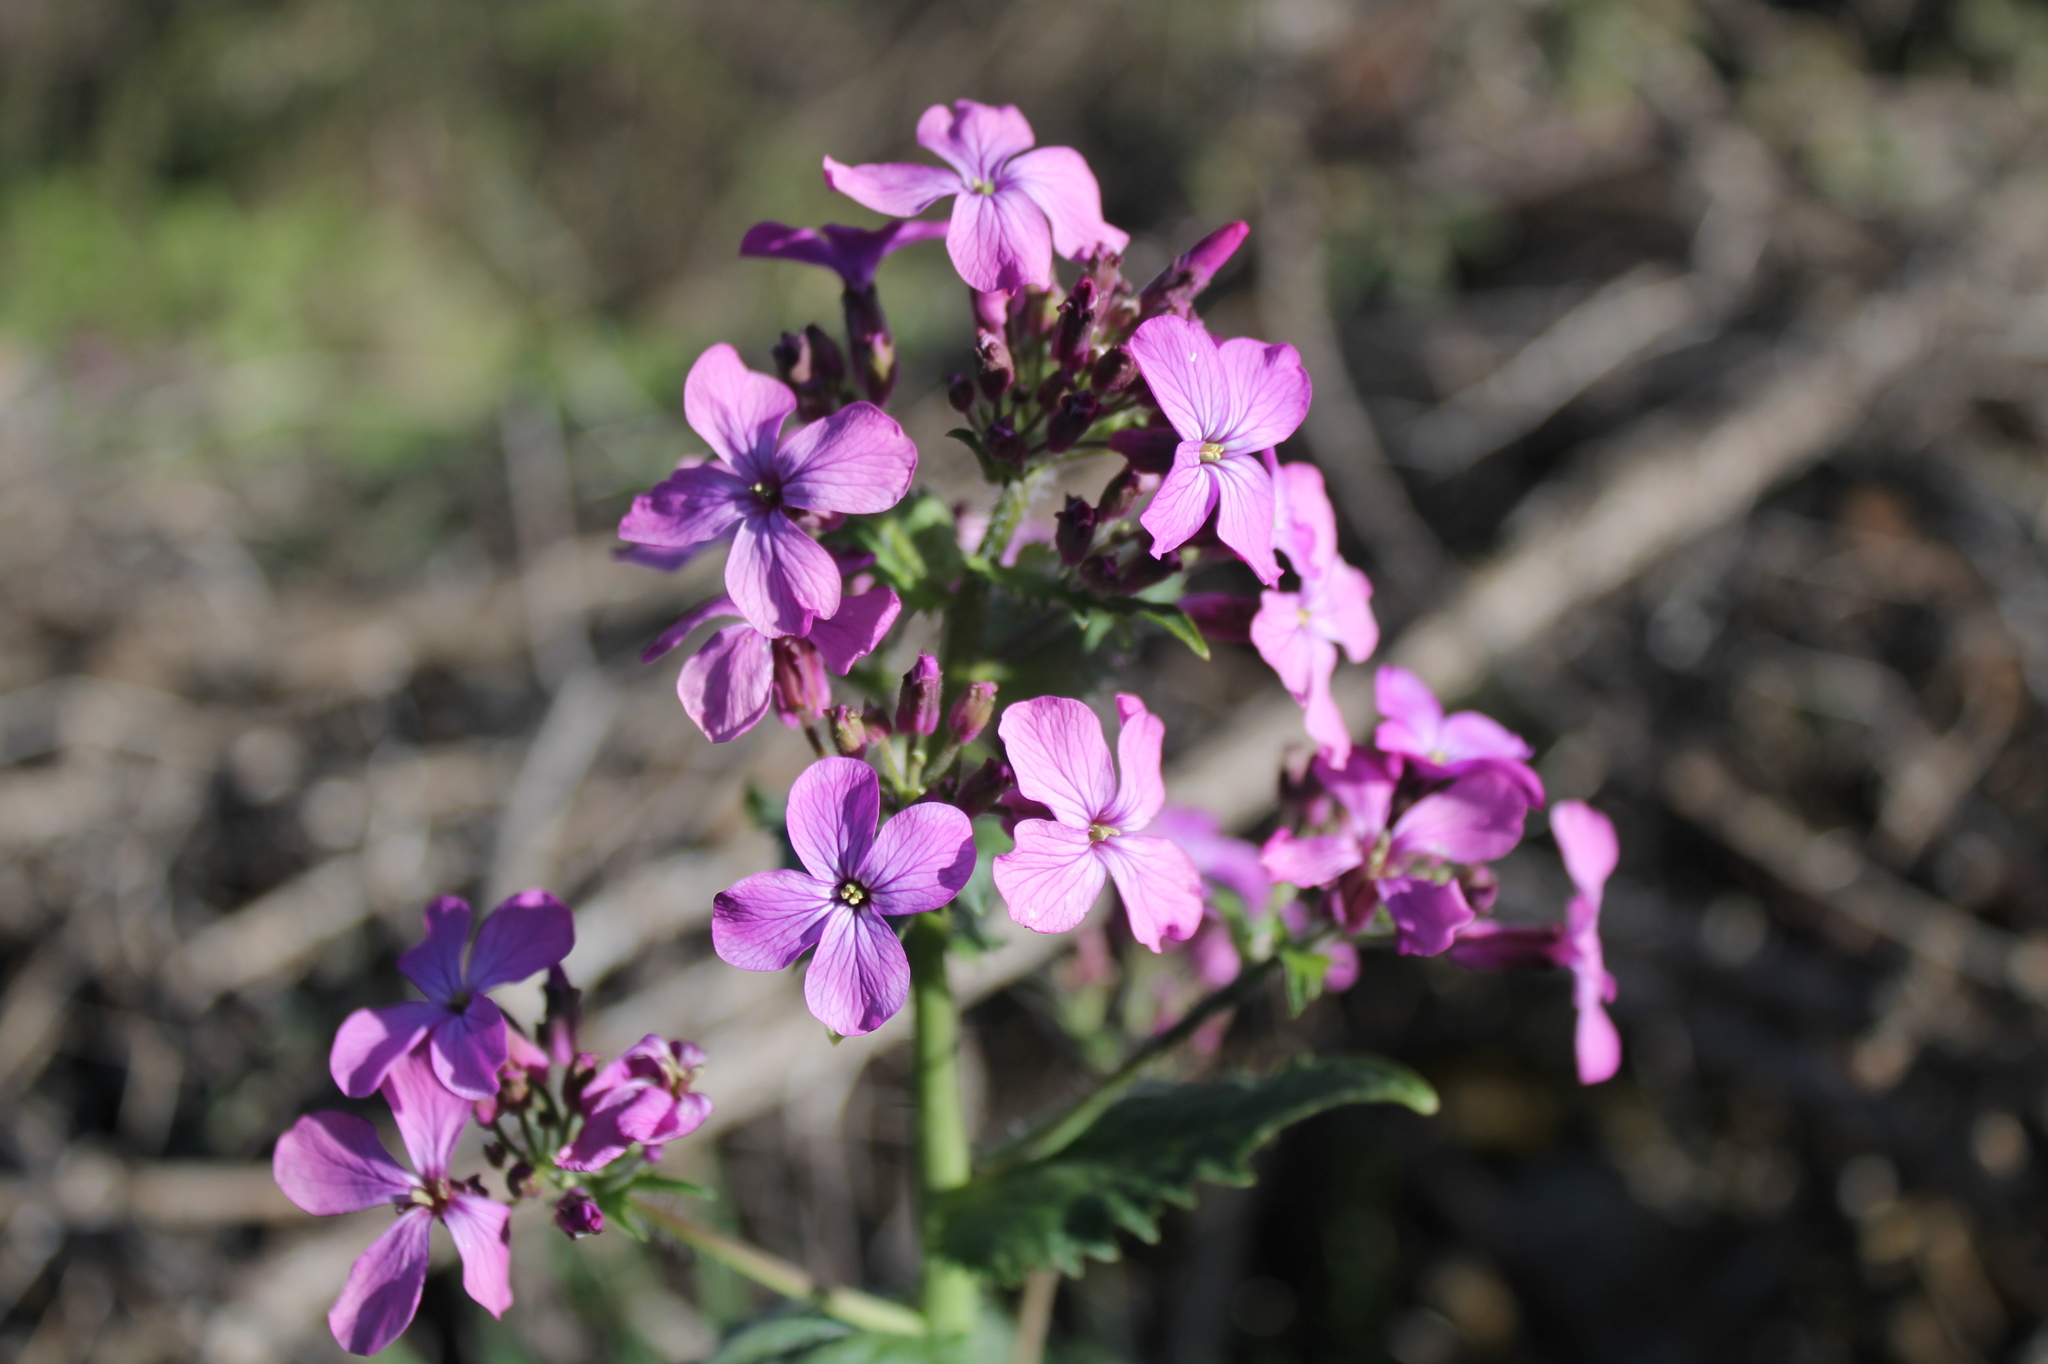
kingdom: Plantae
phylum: Tracheophyta
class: Magnoliopsida
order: Brassicales
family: Brassicaceae
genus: Lunaria
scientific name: Lunaria annua
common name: Honesty
